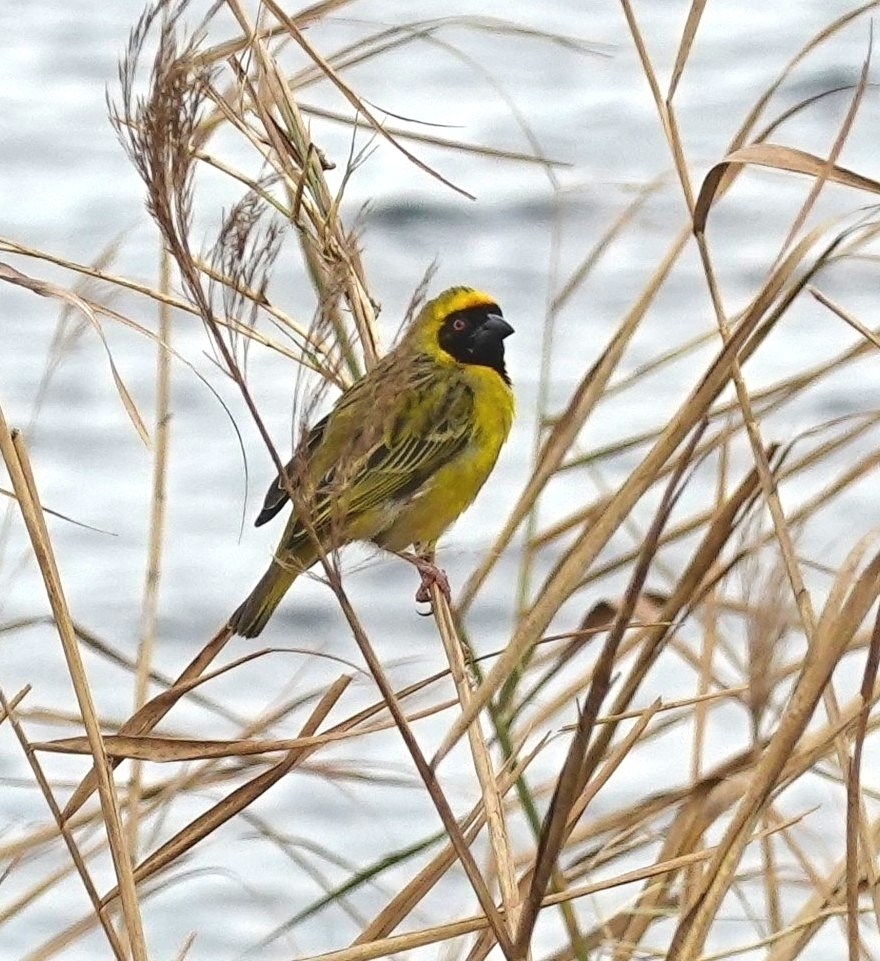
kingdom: Animalia
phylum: Chordata
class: Aves
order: Passeriformes
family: Ploceidae
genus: Ploceus
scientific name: Ploceus velatus
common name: Southern masked weaver
